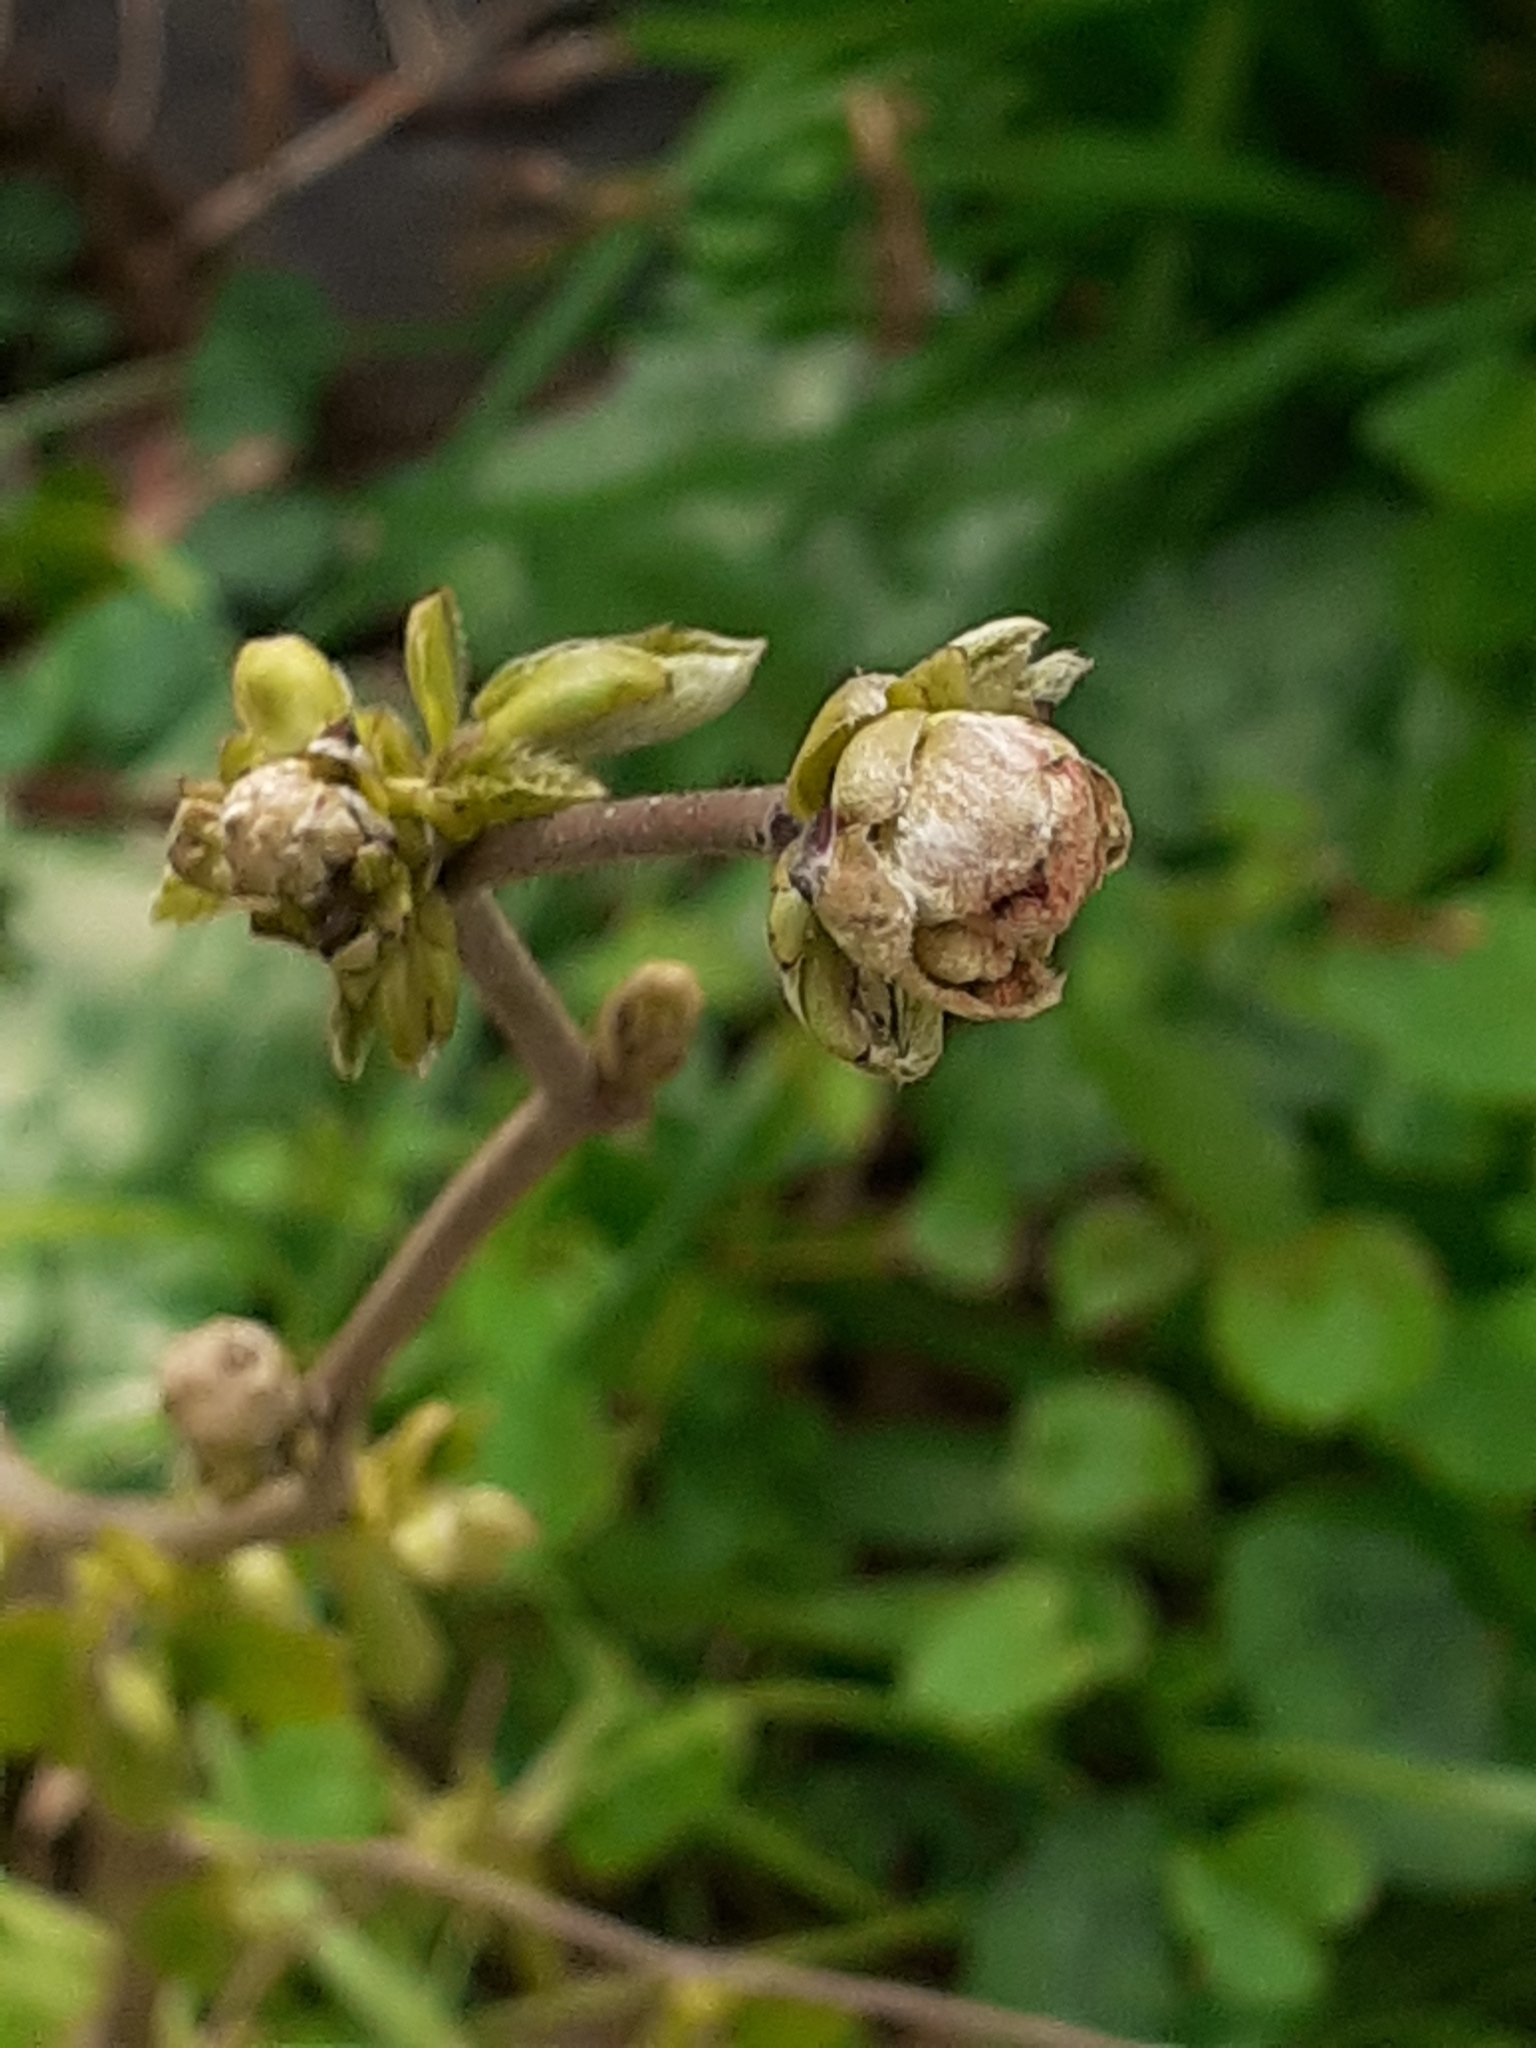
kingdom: Animalia
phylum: Arthropoda
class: Arachnida
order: Trombidiformes
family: Phytoptidae
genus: Phytoptus
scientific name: Phytoptus avellanae
